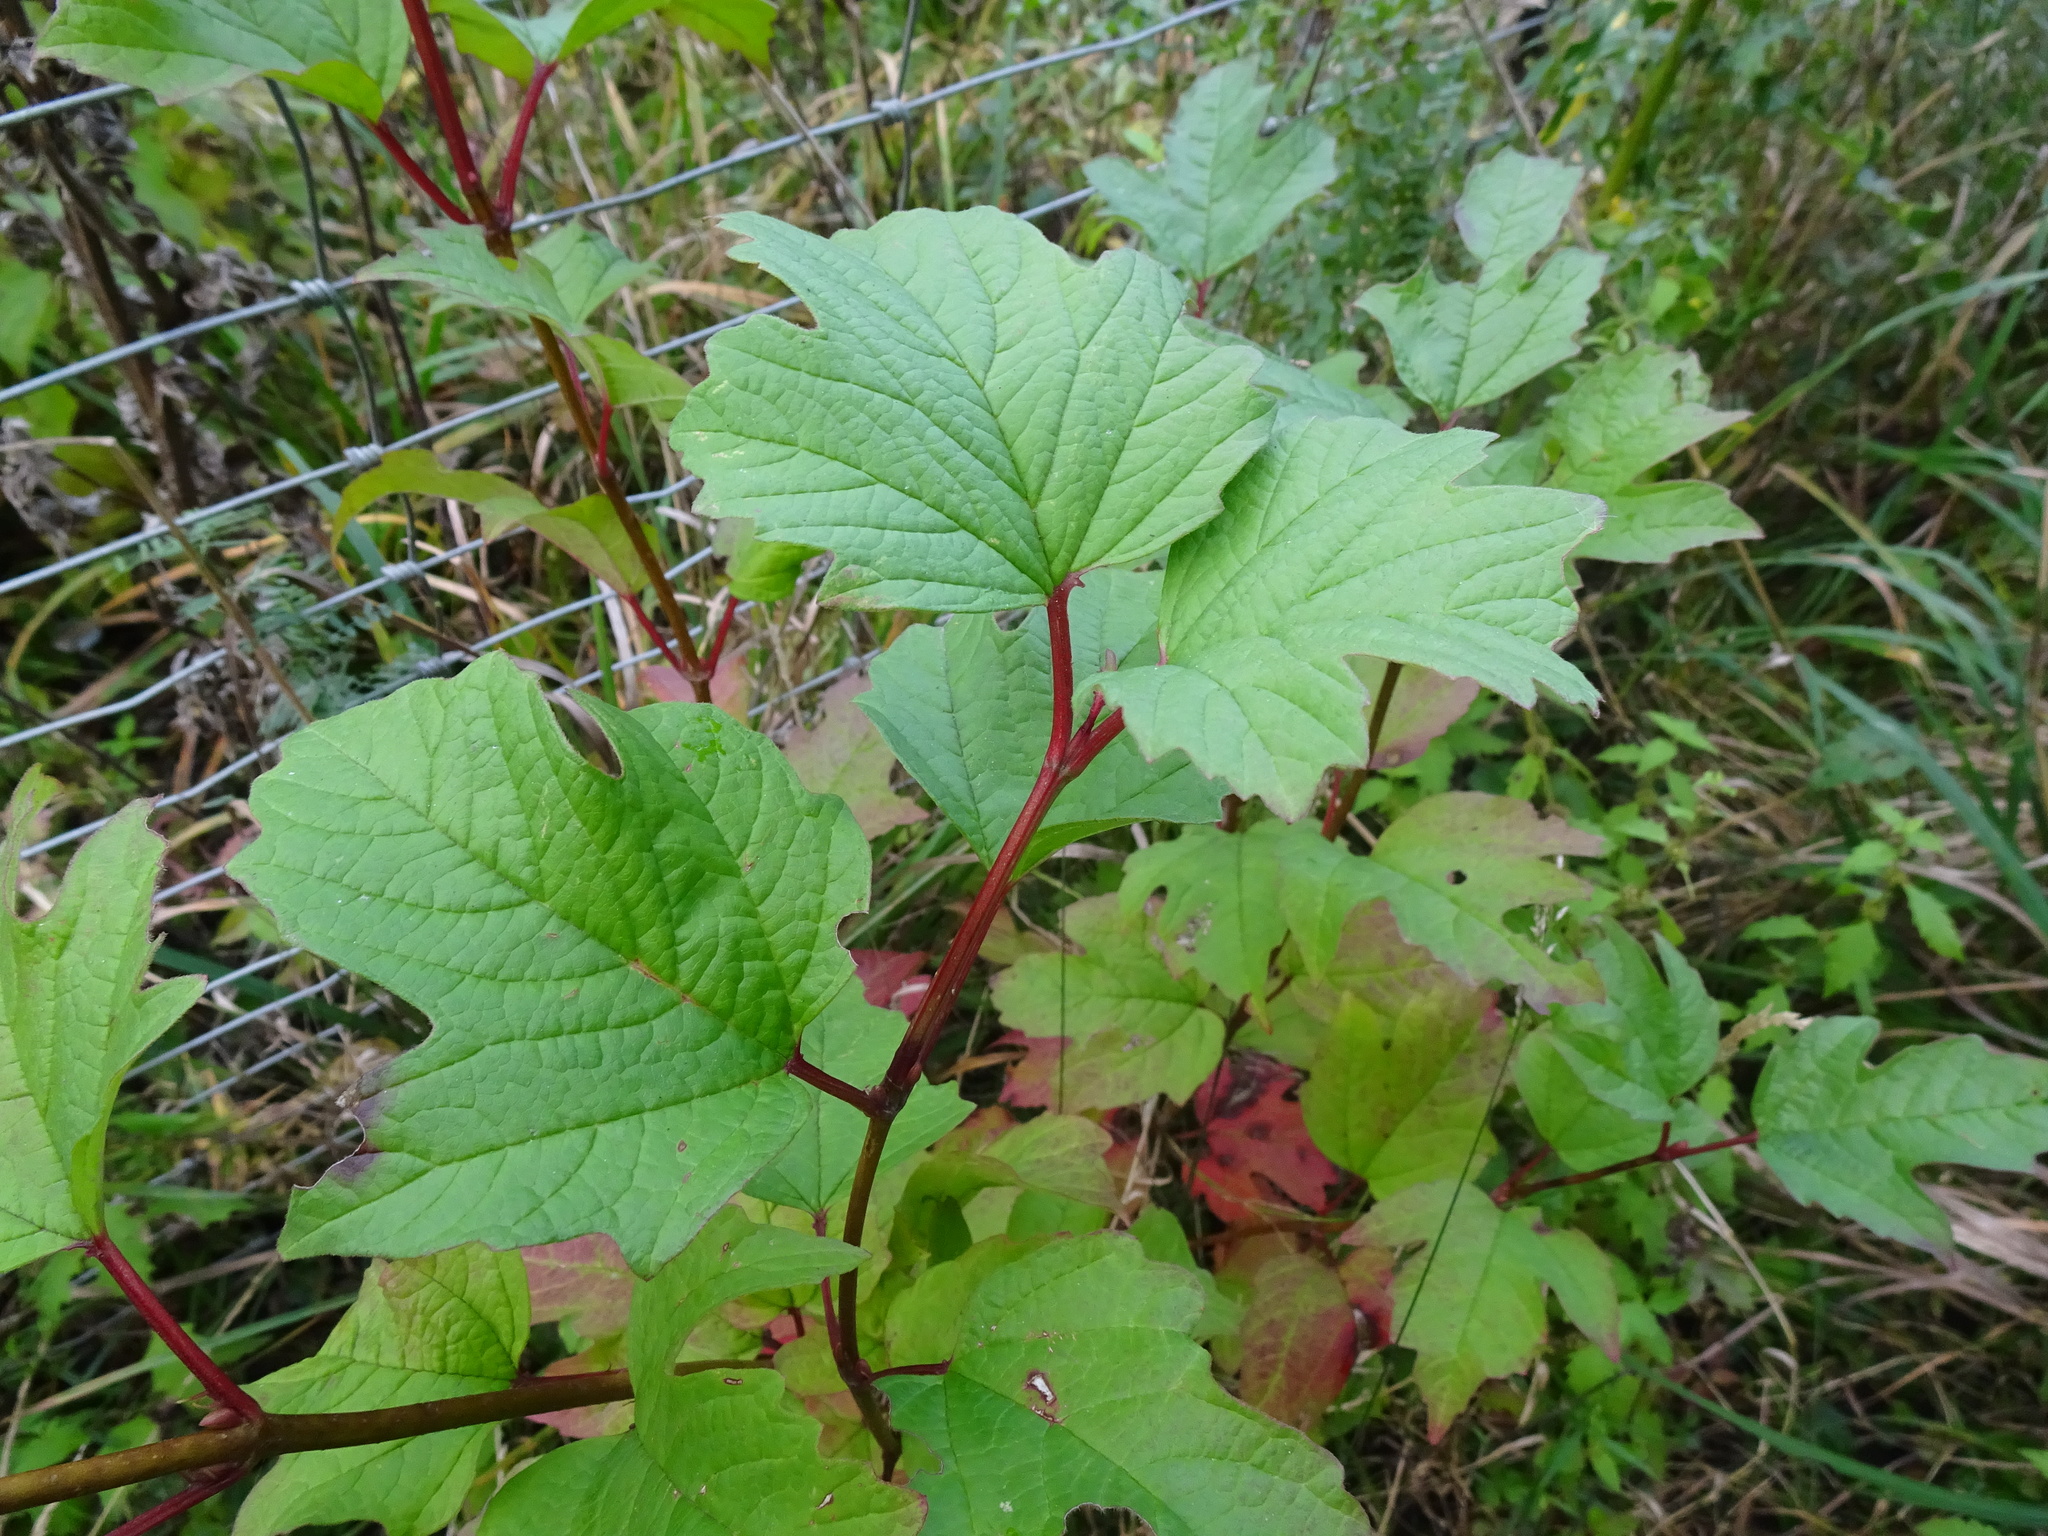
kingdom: Plantae
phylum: Tracheophyta
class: Magnoliopsida
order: Dipsacales
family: Viburnaceae
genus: Viburnum
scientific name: Viburnum opulus
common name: Guelder-rose
